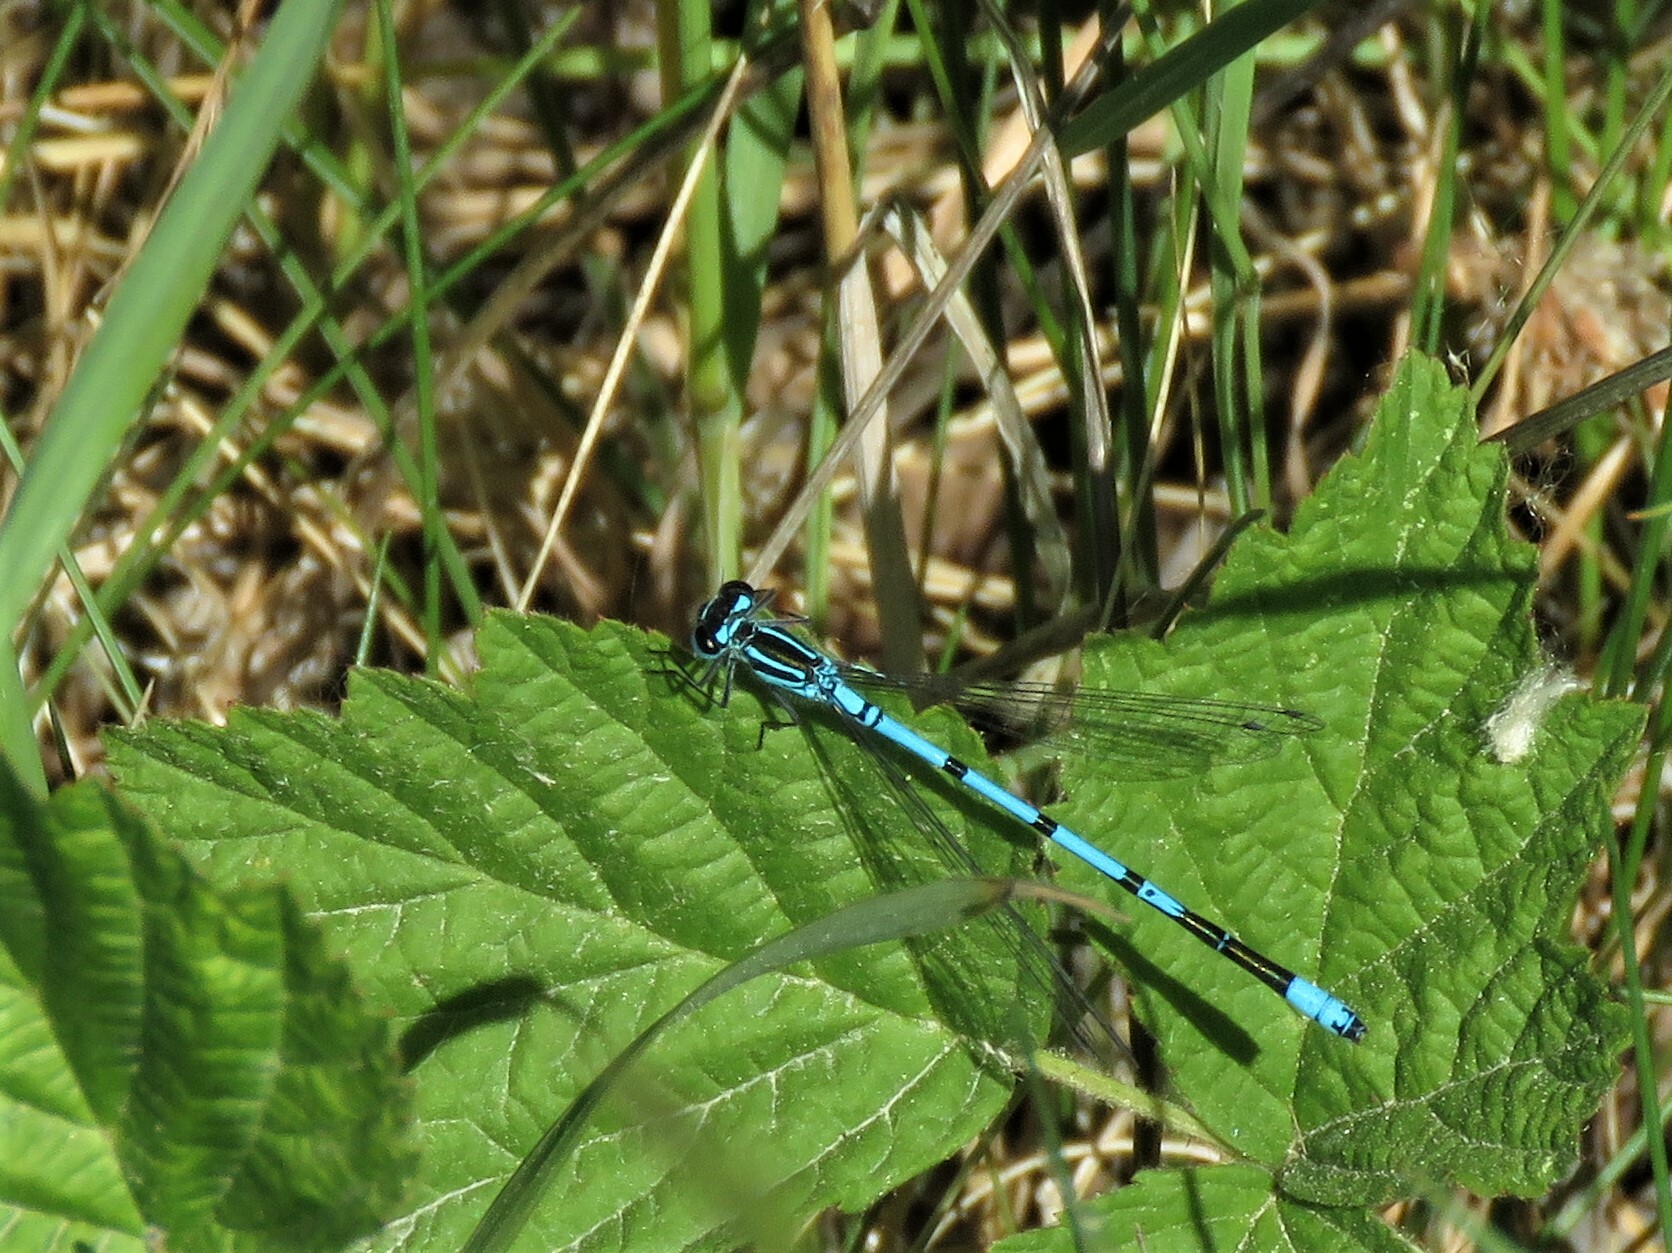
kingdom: Animalia
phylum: Arthropoda
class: Insecta
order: Odonata
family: Coenagrionidae
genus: Coenagrion
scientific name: Coenagrion puella
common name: Azure damselfly
